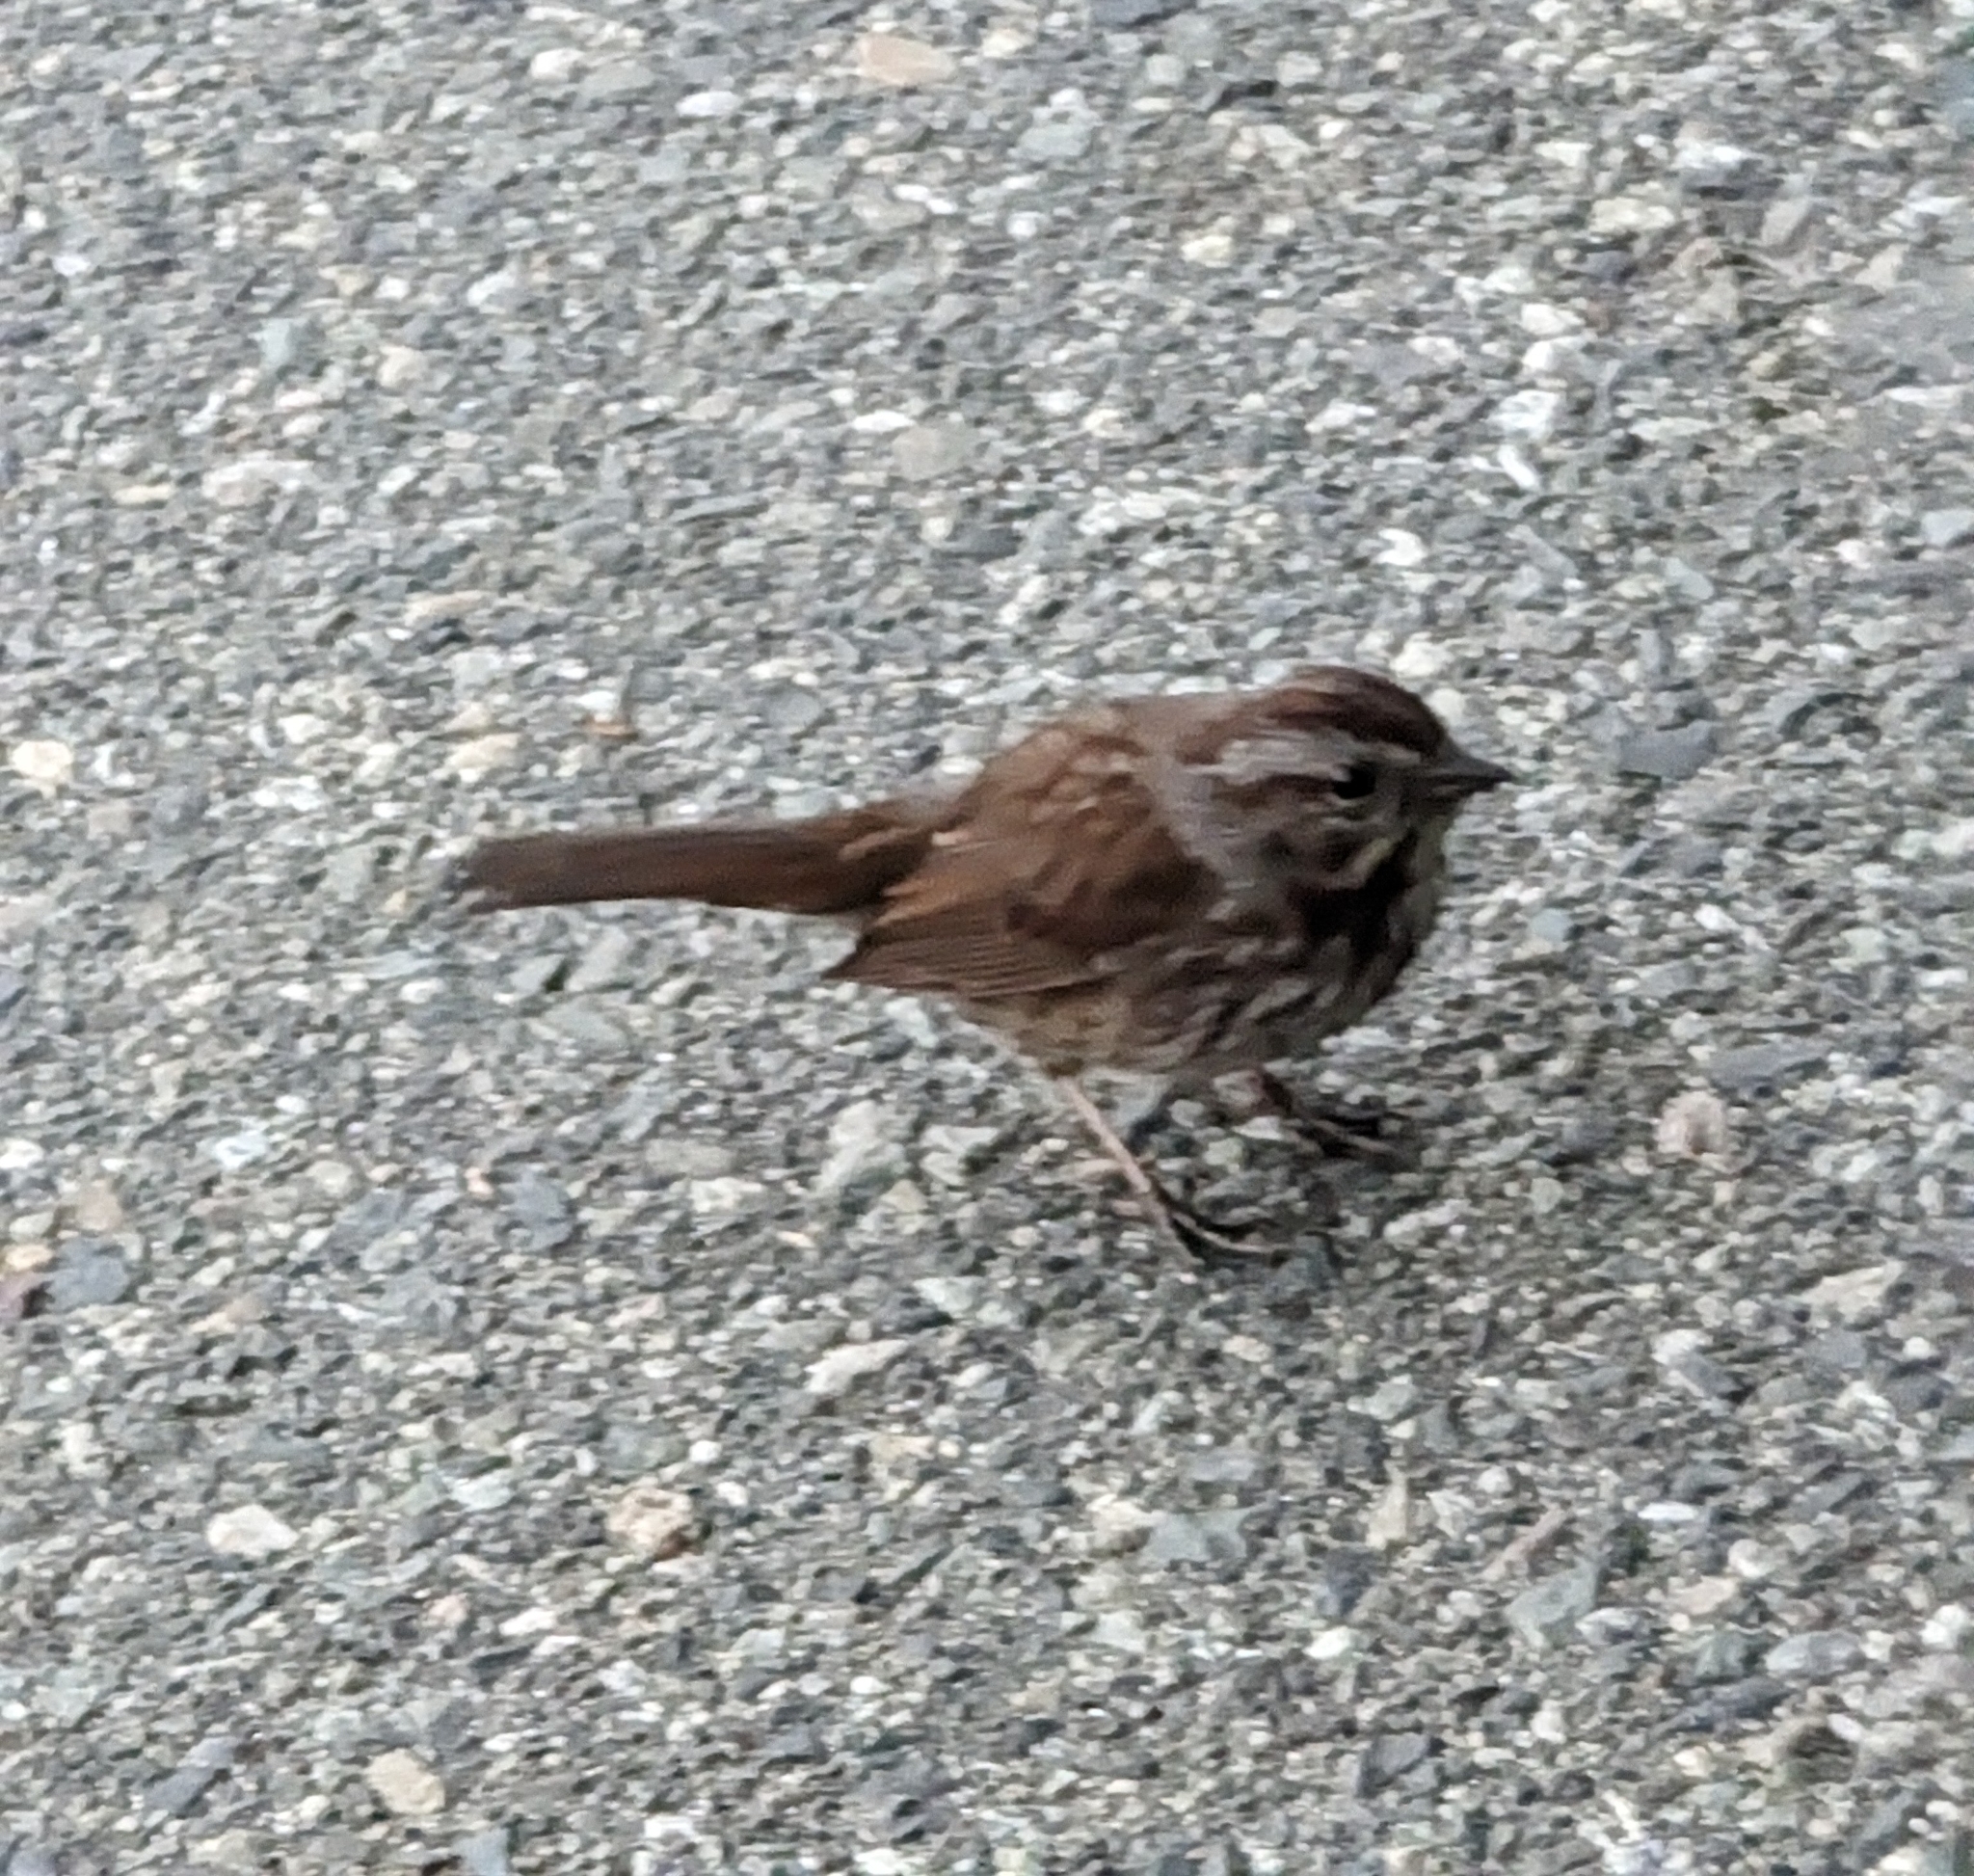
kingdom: Animalia
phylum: Chordata
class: Aves
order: Passeriformes
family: Passerellidae
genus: Melospiza
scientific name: Melospiza melodia
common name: Song sparrow
